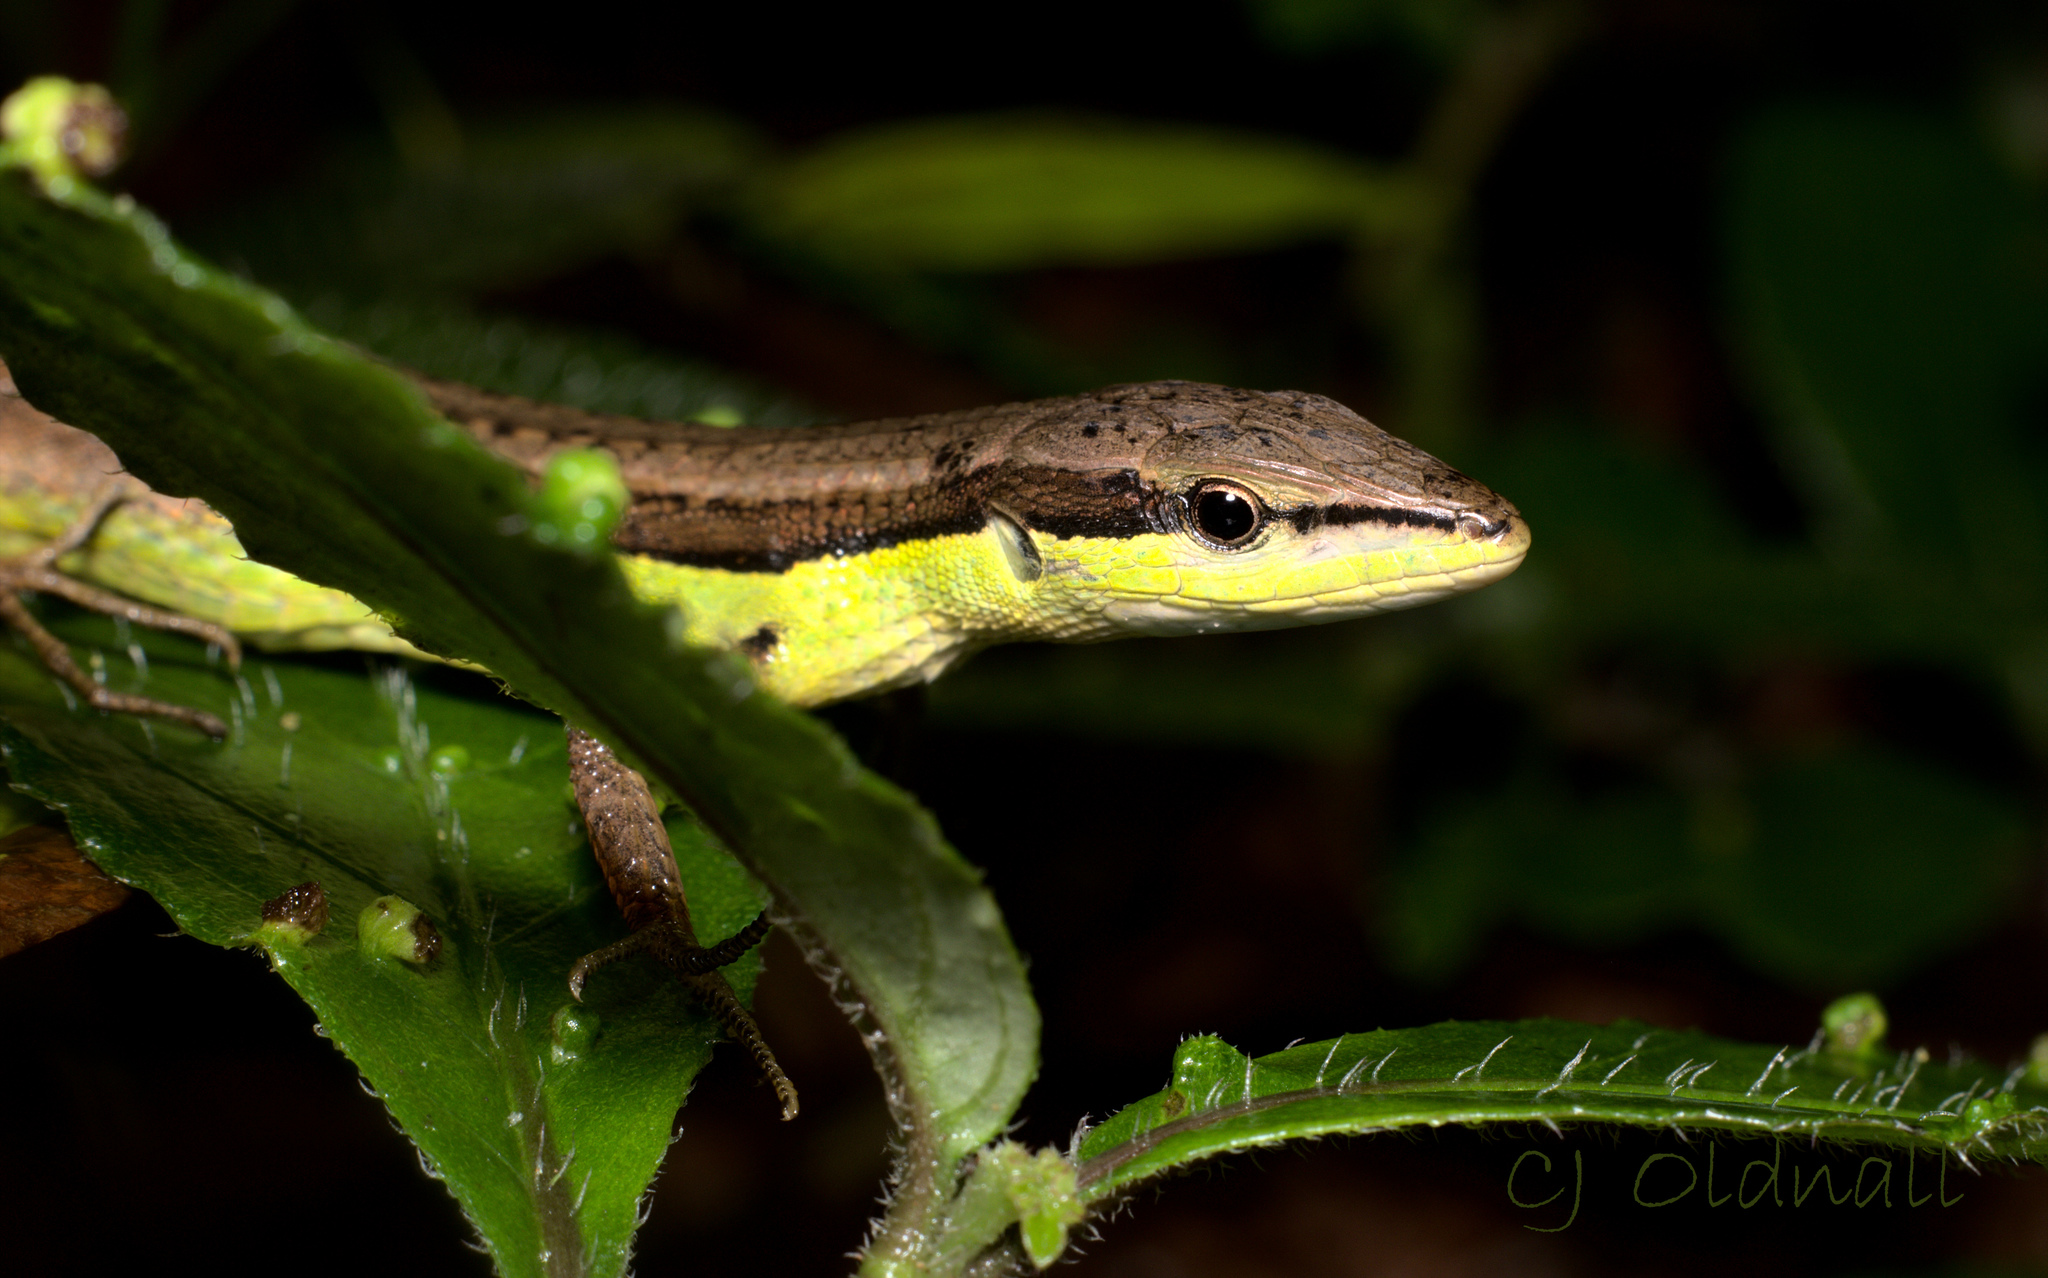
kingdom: Animalia
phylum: Chordata
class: Squamata
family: Lacertidae
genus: Takydromus
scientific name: Takydromus sexlineatus
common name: Asian grass lizard
